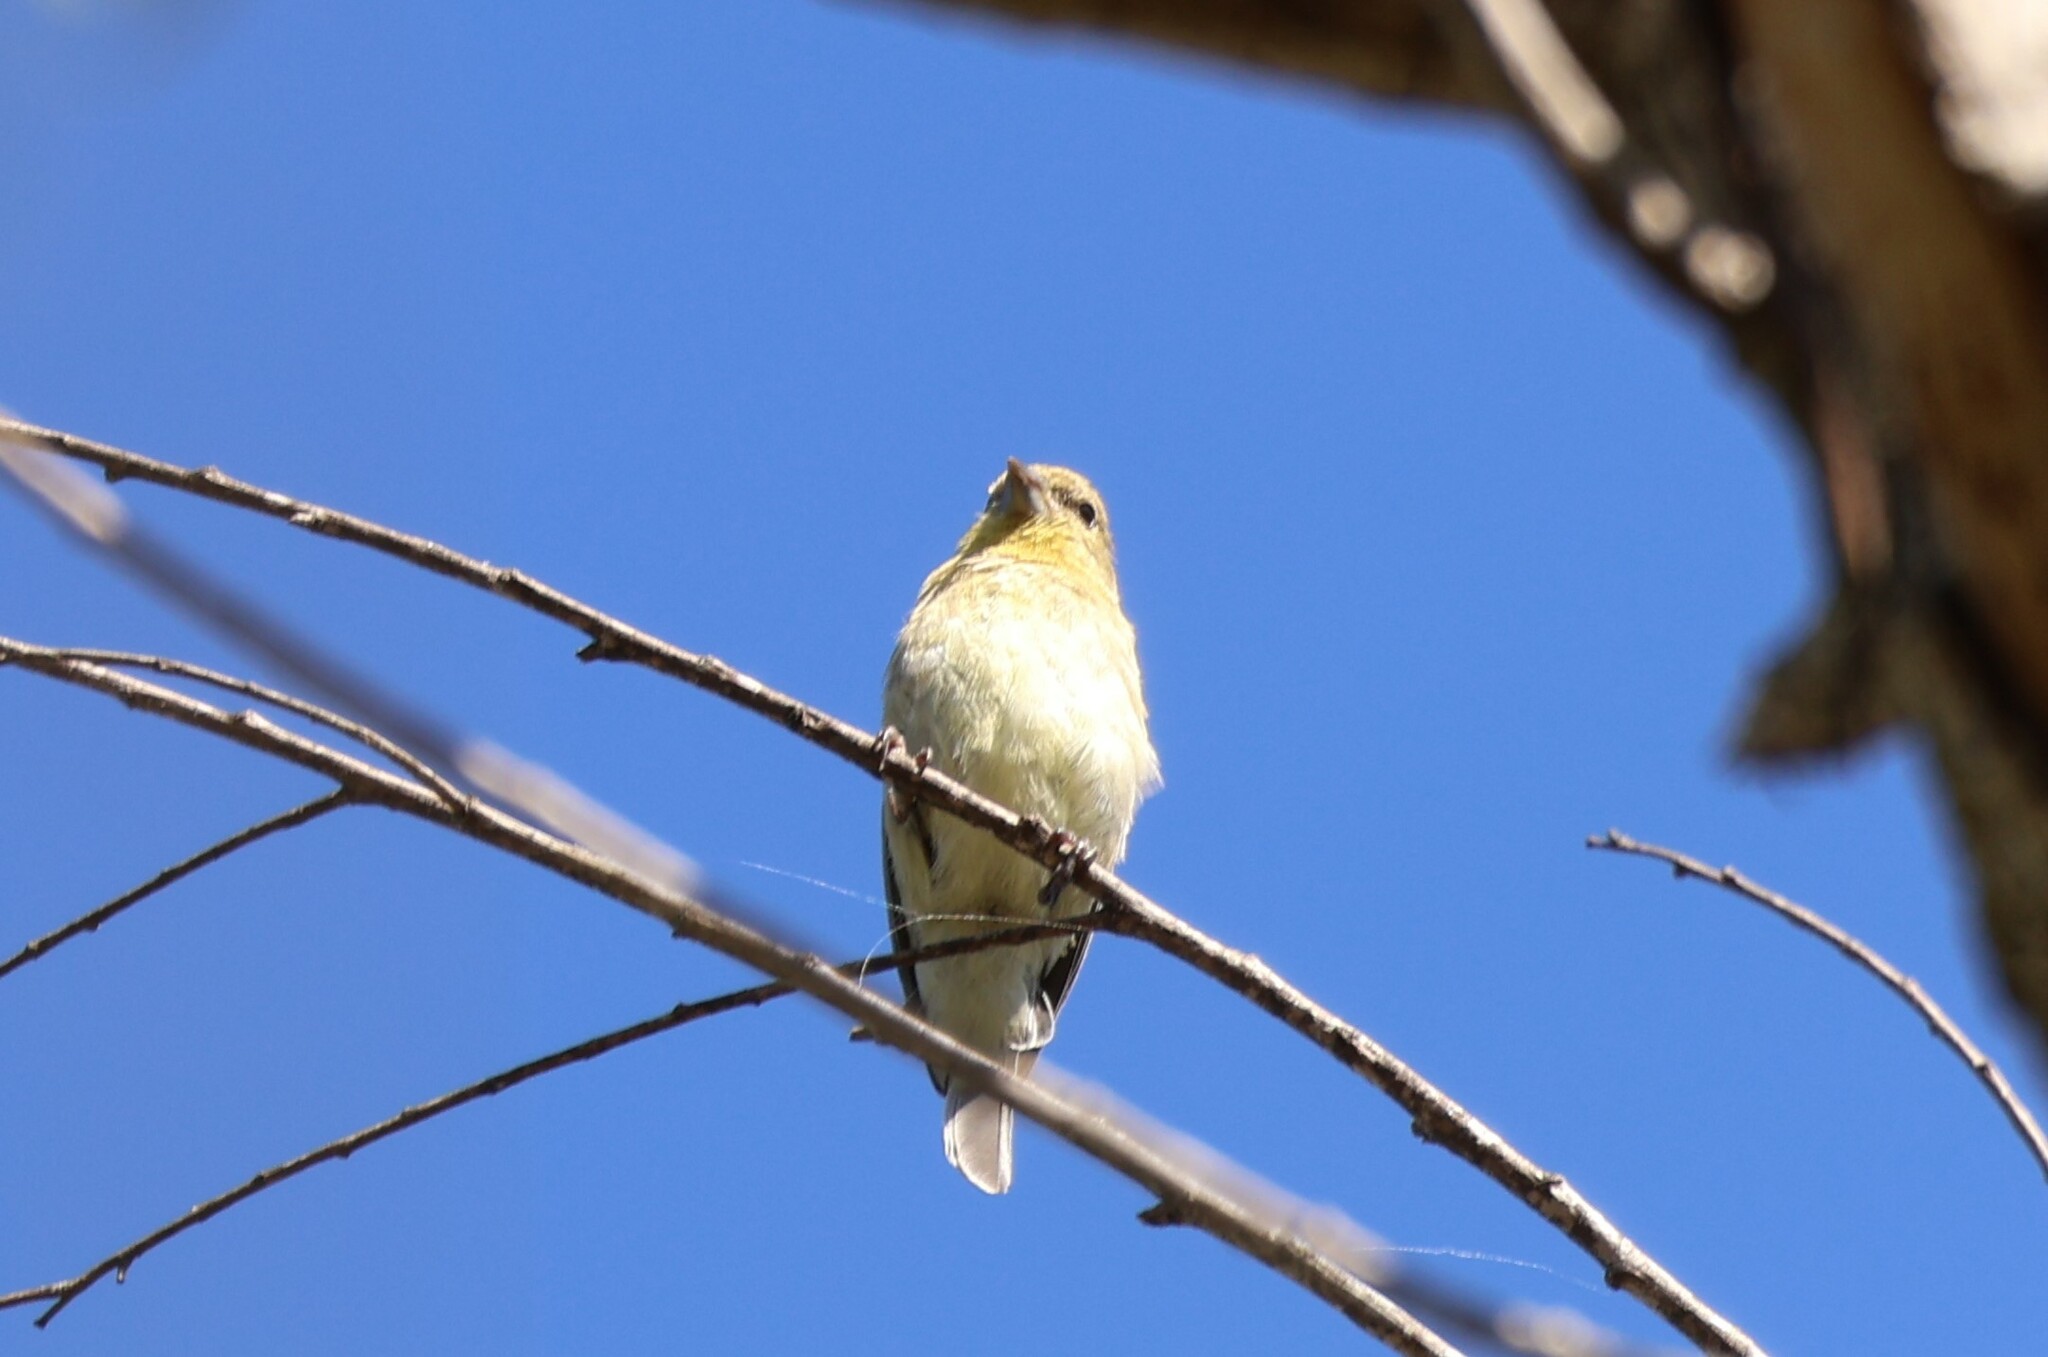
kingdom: Animalia
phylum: Chordata
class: Aves
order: Passeriformes
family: Fringillidae
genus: Spinus
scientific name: Spinus psaltria
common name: Lesser goldfinch
